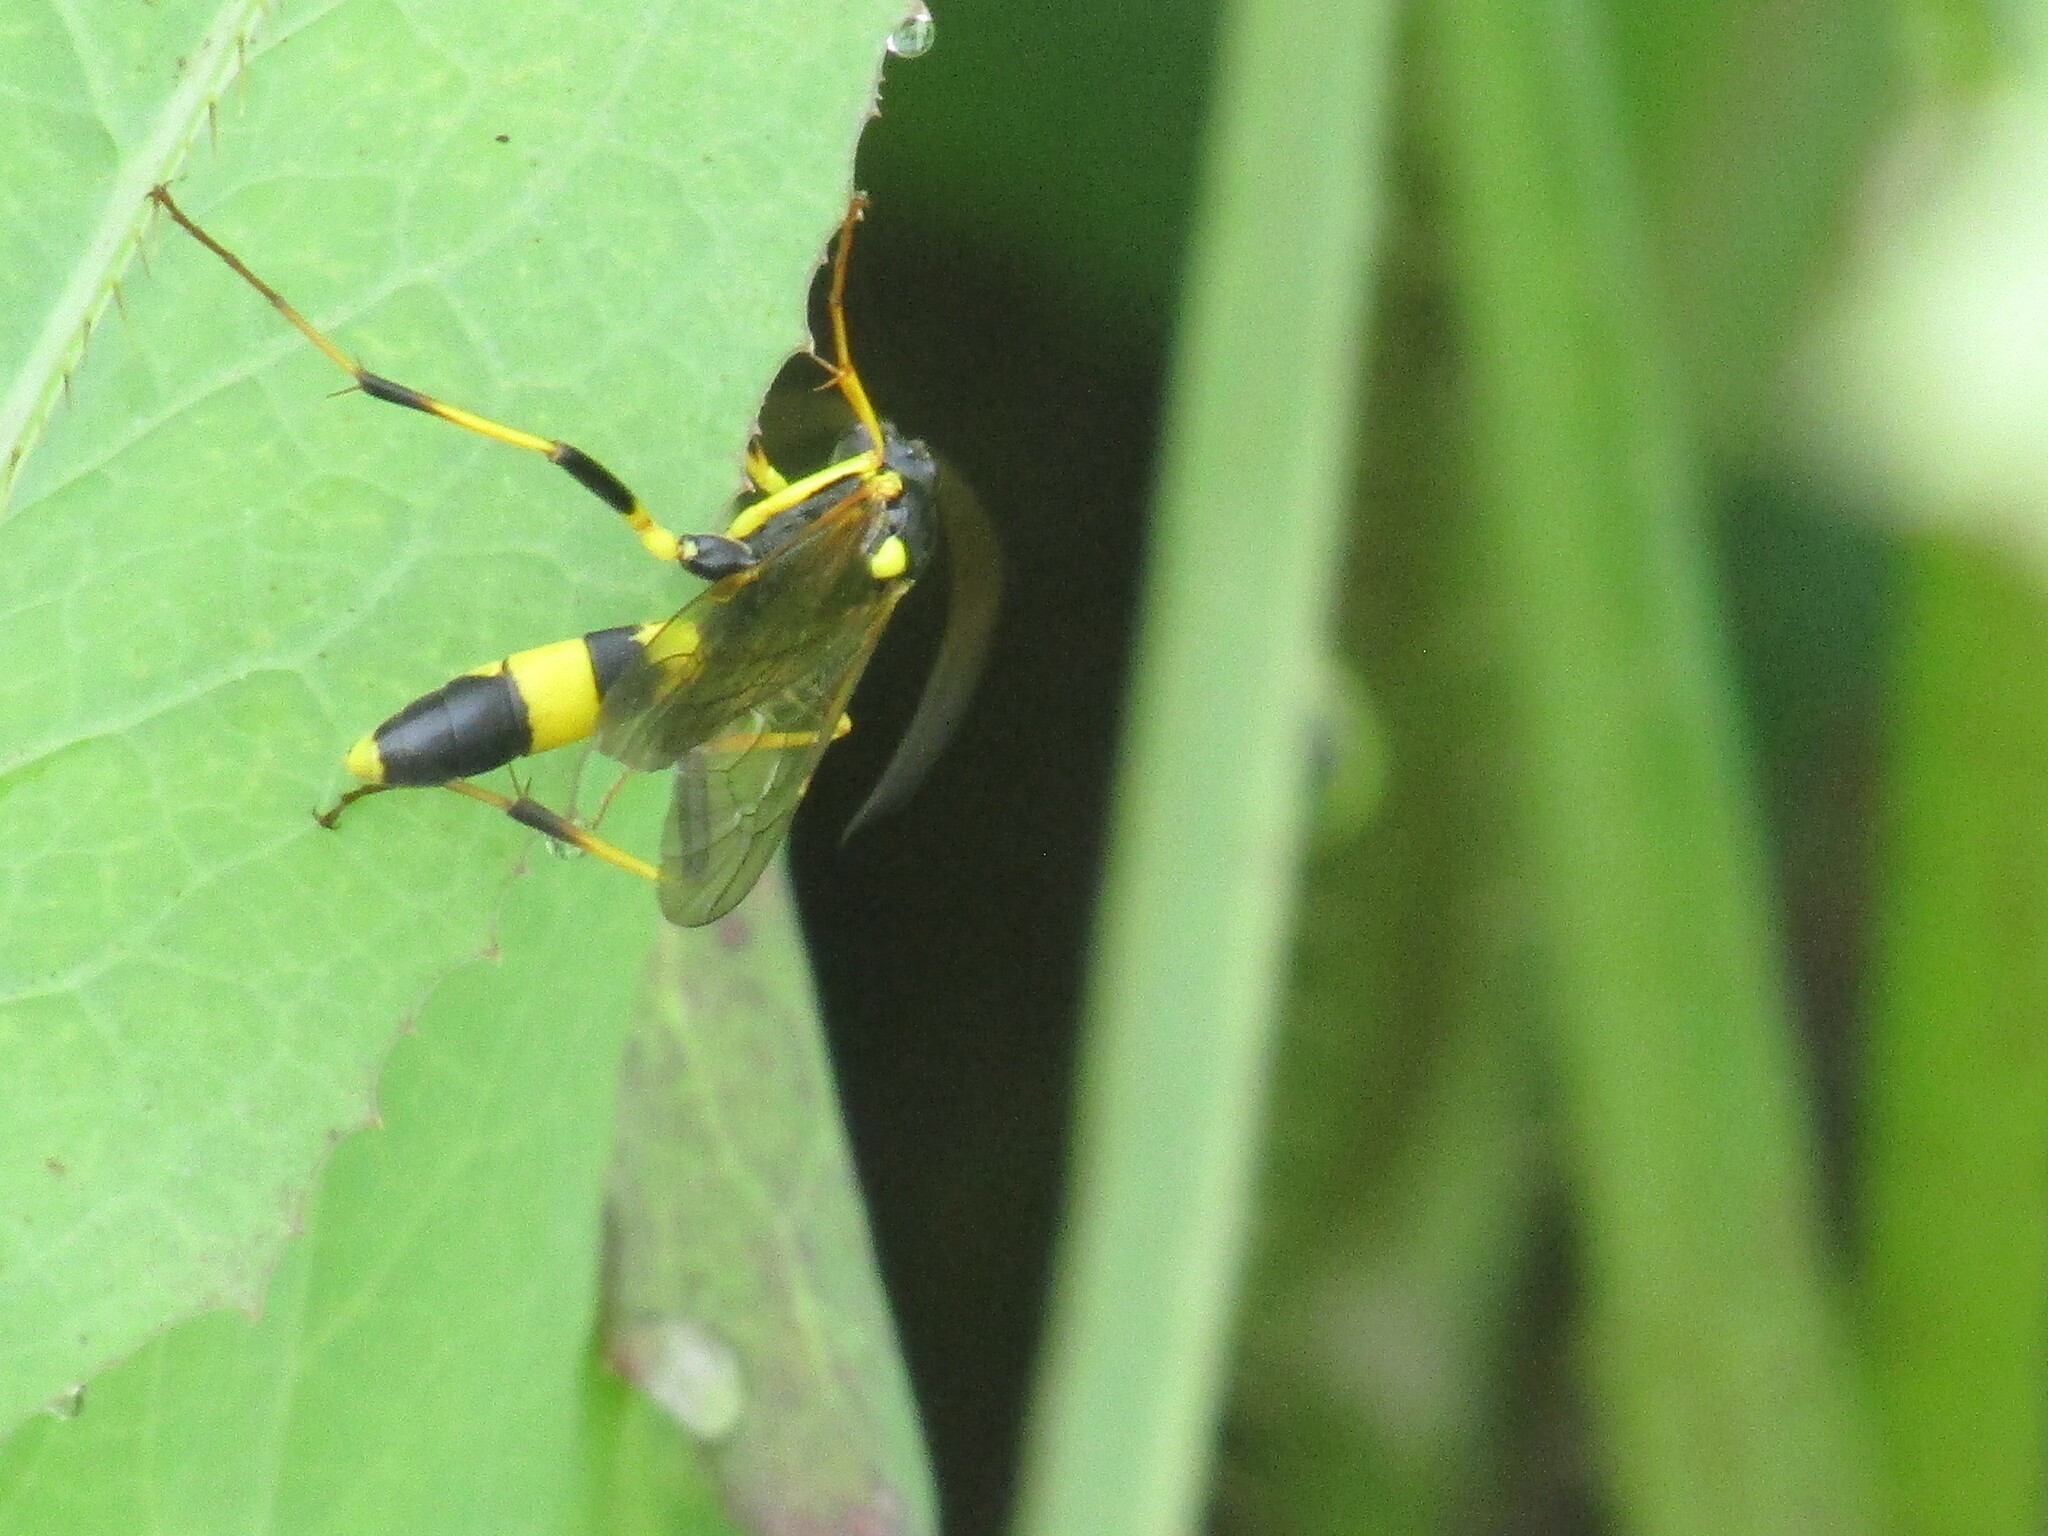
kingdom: Animalia
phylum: Arthropoda
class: Insecta
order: Hymenoptera
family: Ichneumonidae
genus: Amblyteles
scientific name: Amblyteles armatorius
